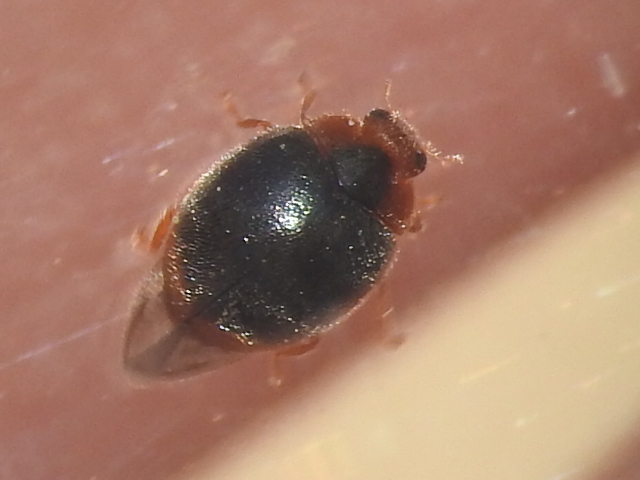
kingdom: Animalia
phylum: Arthropoda
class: Insecta
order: Coleoptera
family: Coccinellidae
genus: Scymnus
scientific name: Scymnus louisianae
